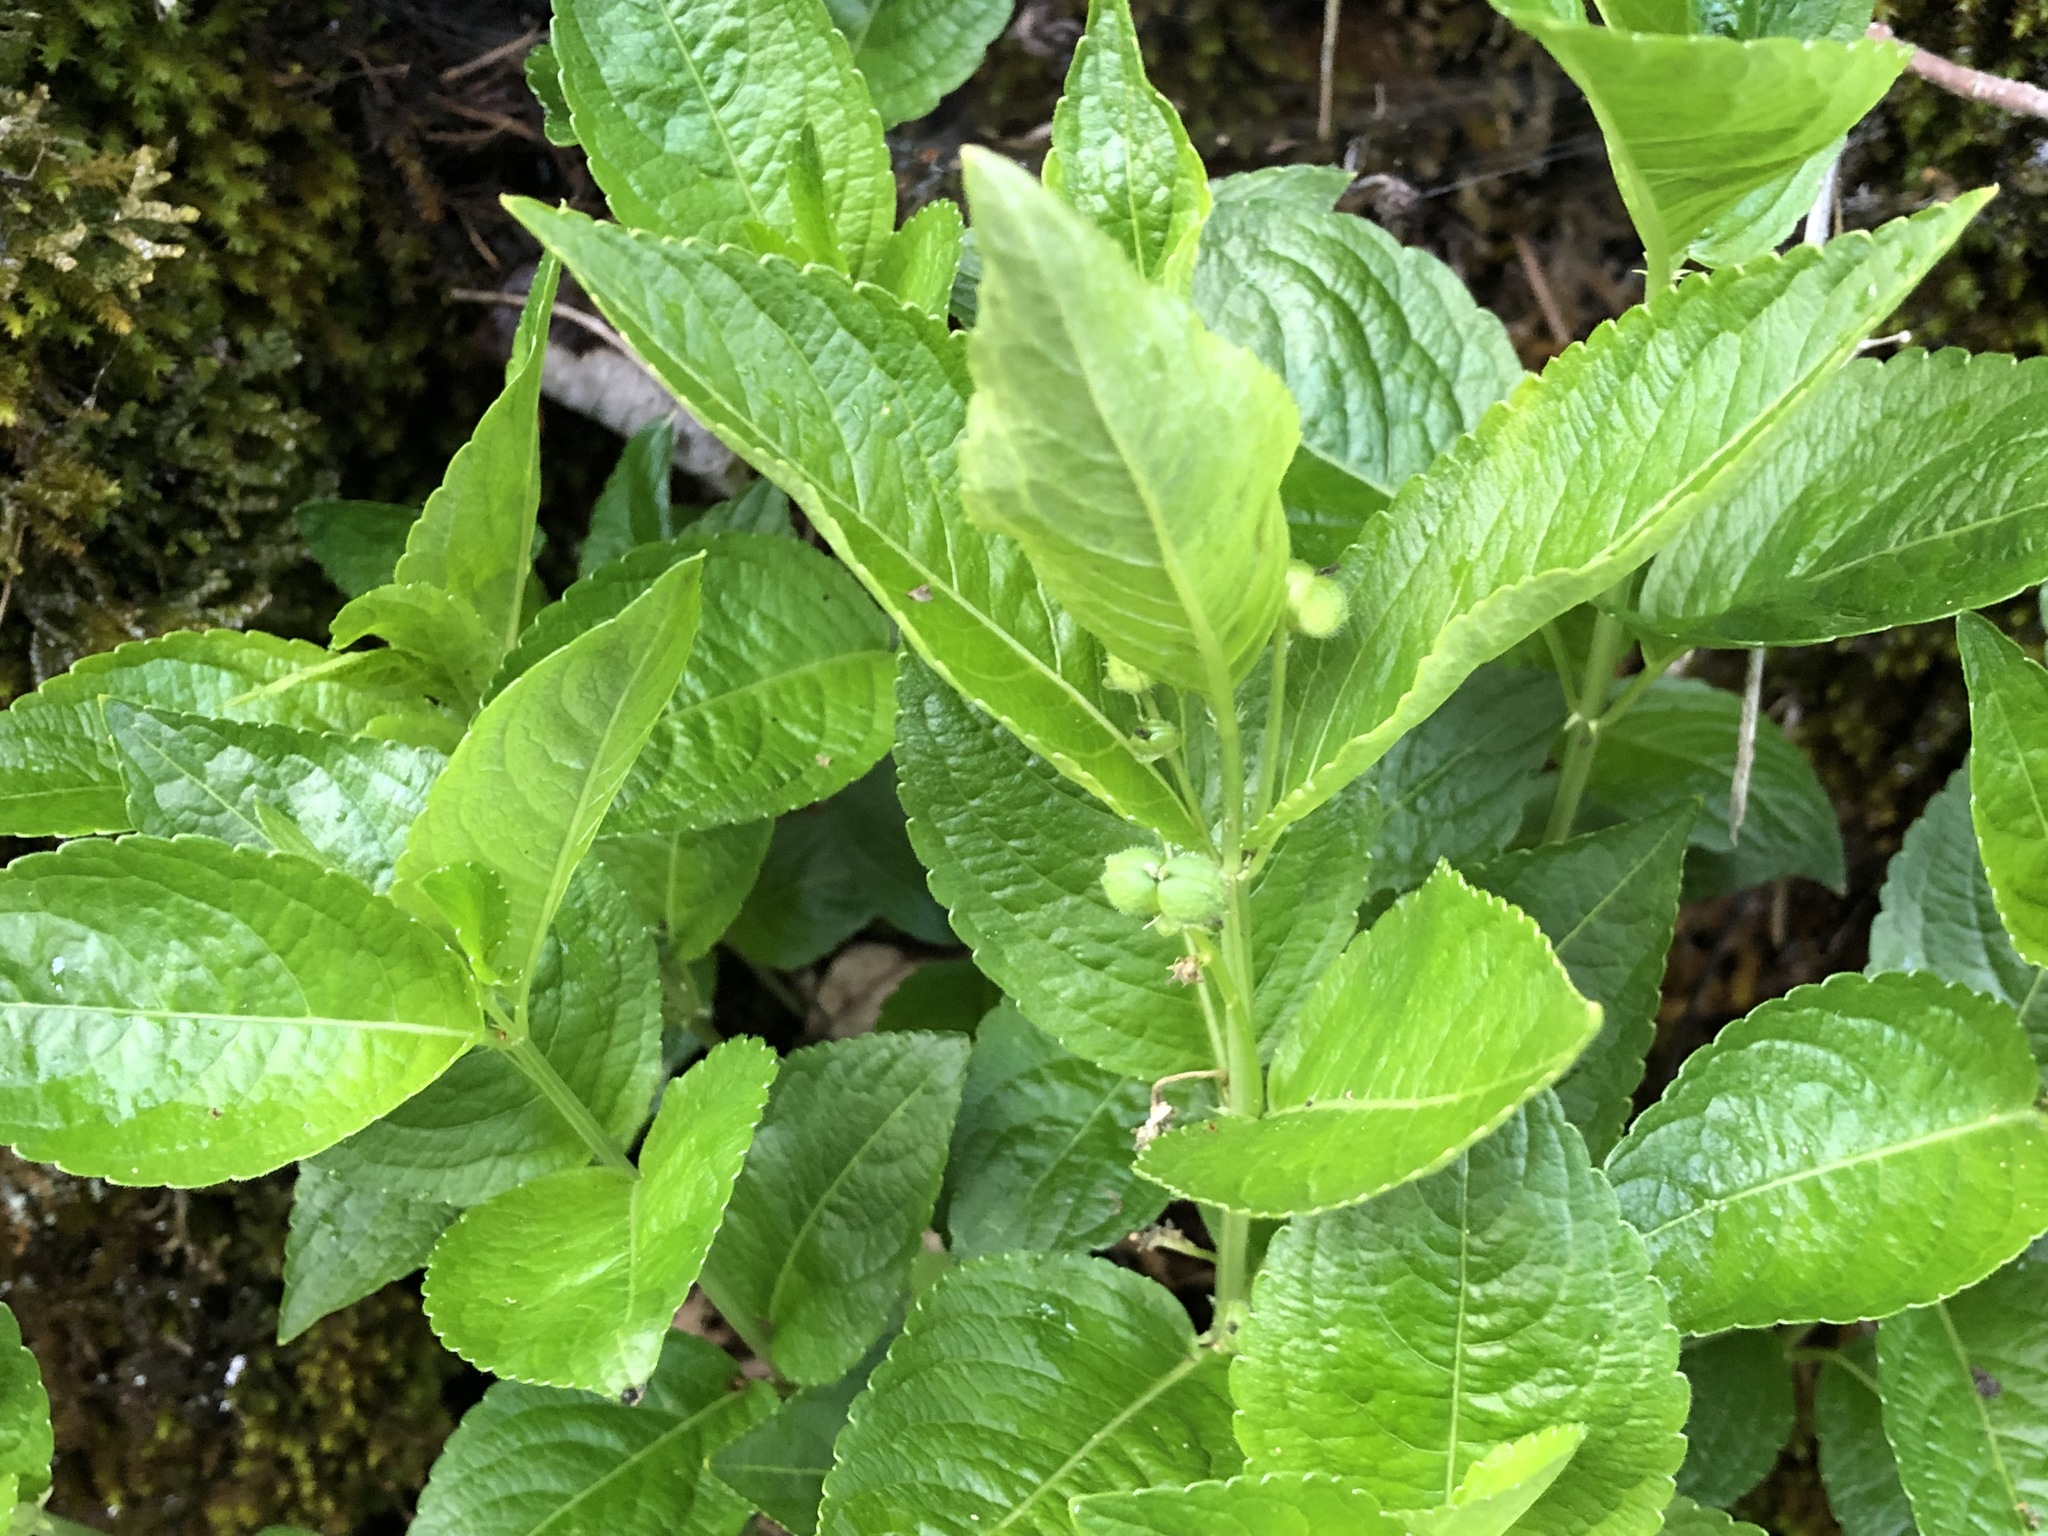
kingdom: Plantae
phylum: Tracheophyta
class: Magnoliopsida
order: Malpighiales
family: Euphorbiaceae
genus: Mercurialis
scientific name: Mercurialis perennis
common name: Dog mercury
